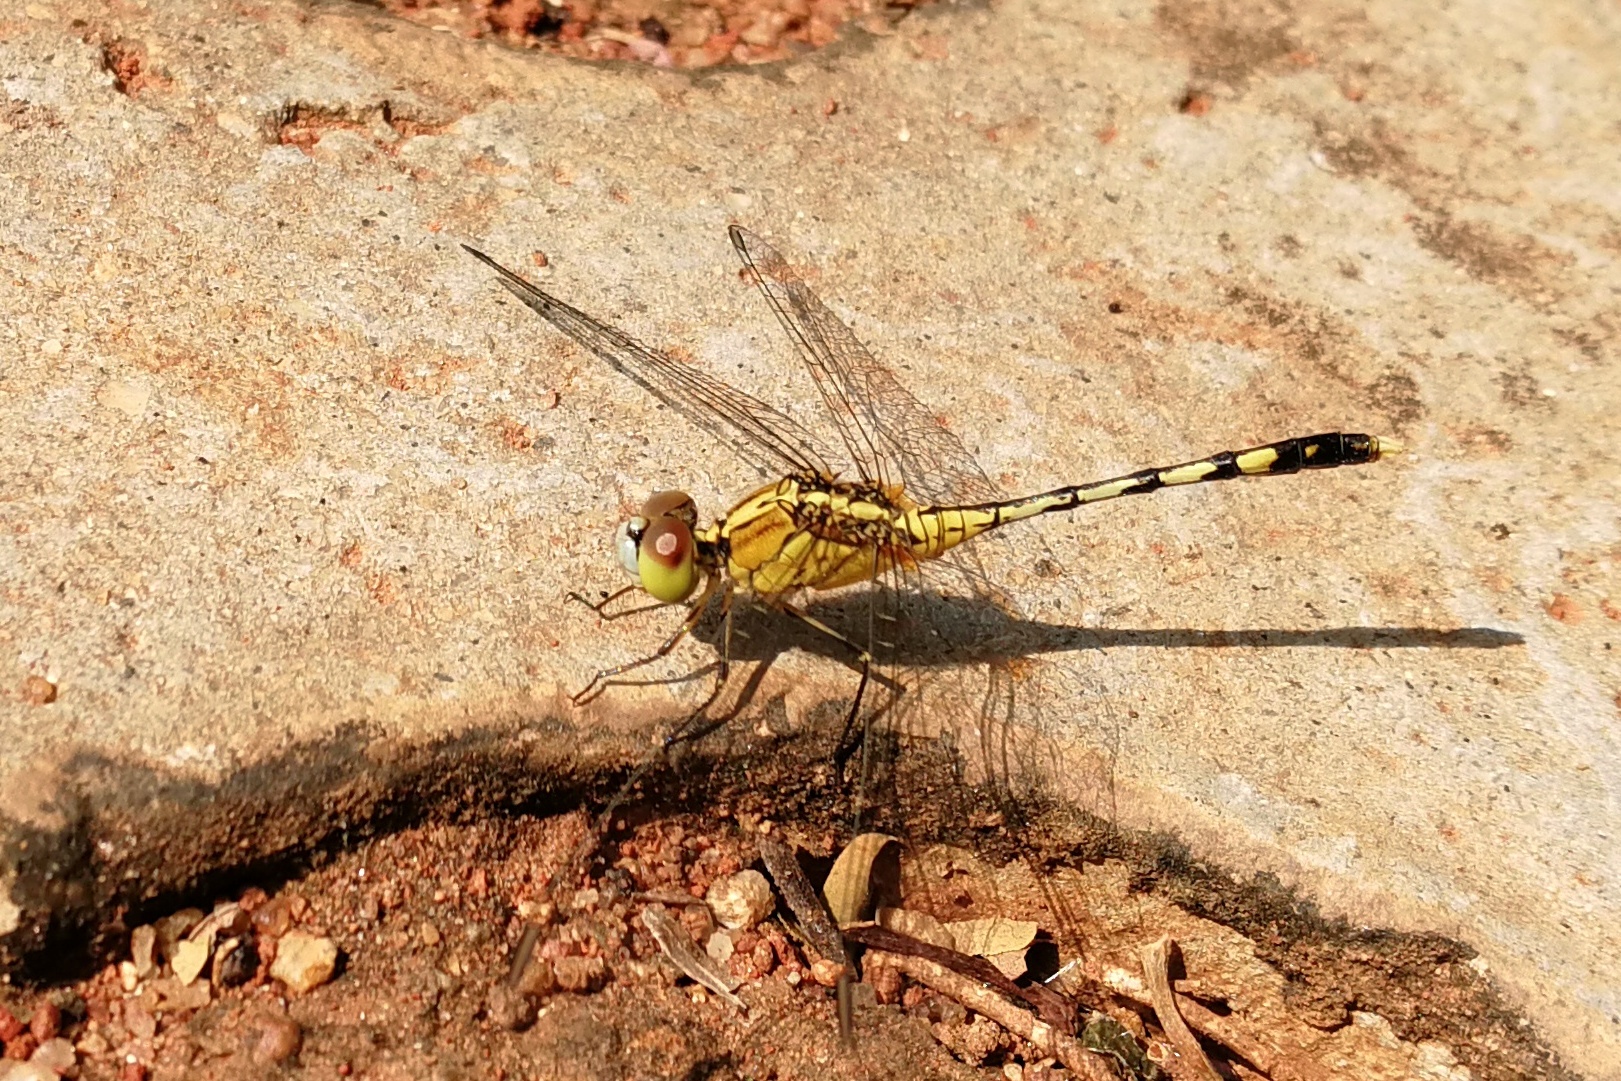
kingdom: Animalia
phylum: Arthropoda
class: Insecta
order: Odonata
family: Libellulidae
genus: Diplacodes
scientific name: Diplacodes trivialis
